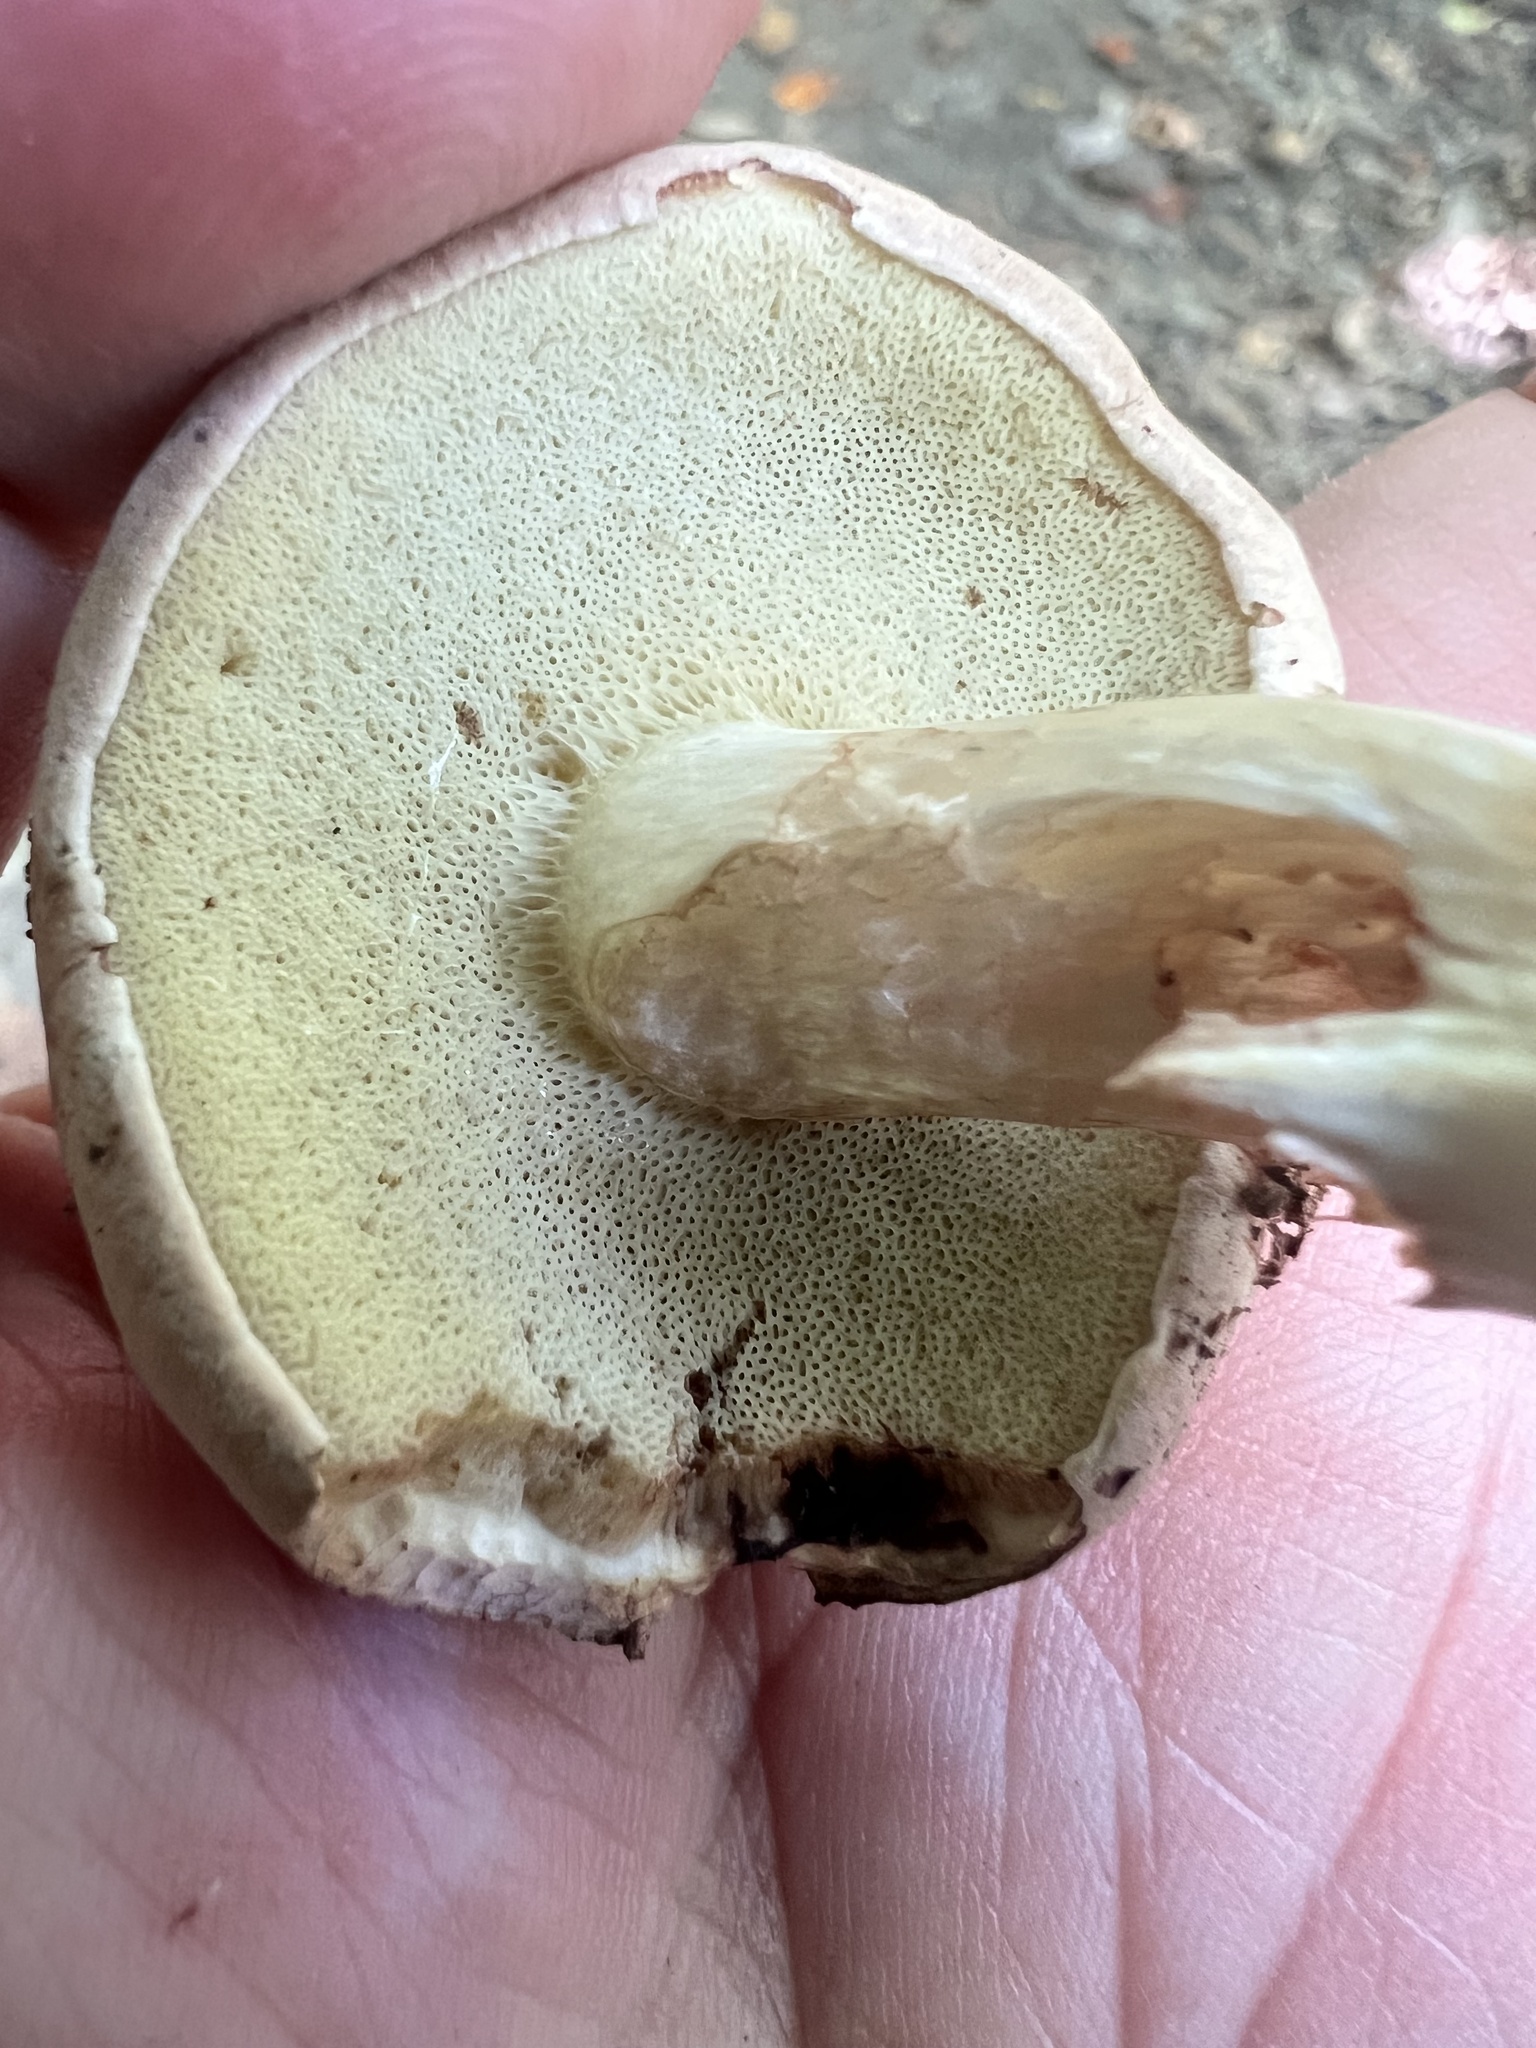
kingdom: Fungi
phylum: Basidiomycota
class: Agaricomycetes
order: Boletales
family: Boletaceae
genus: Imleria
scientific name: Imleria pallida
